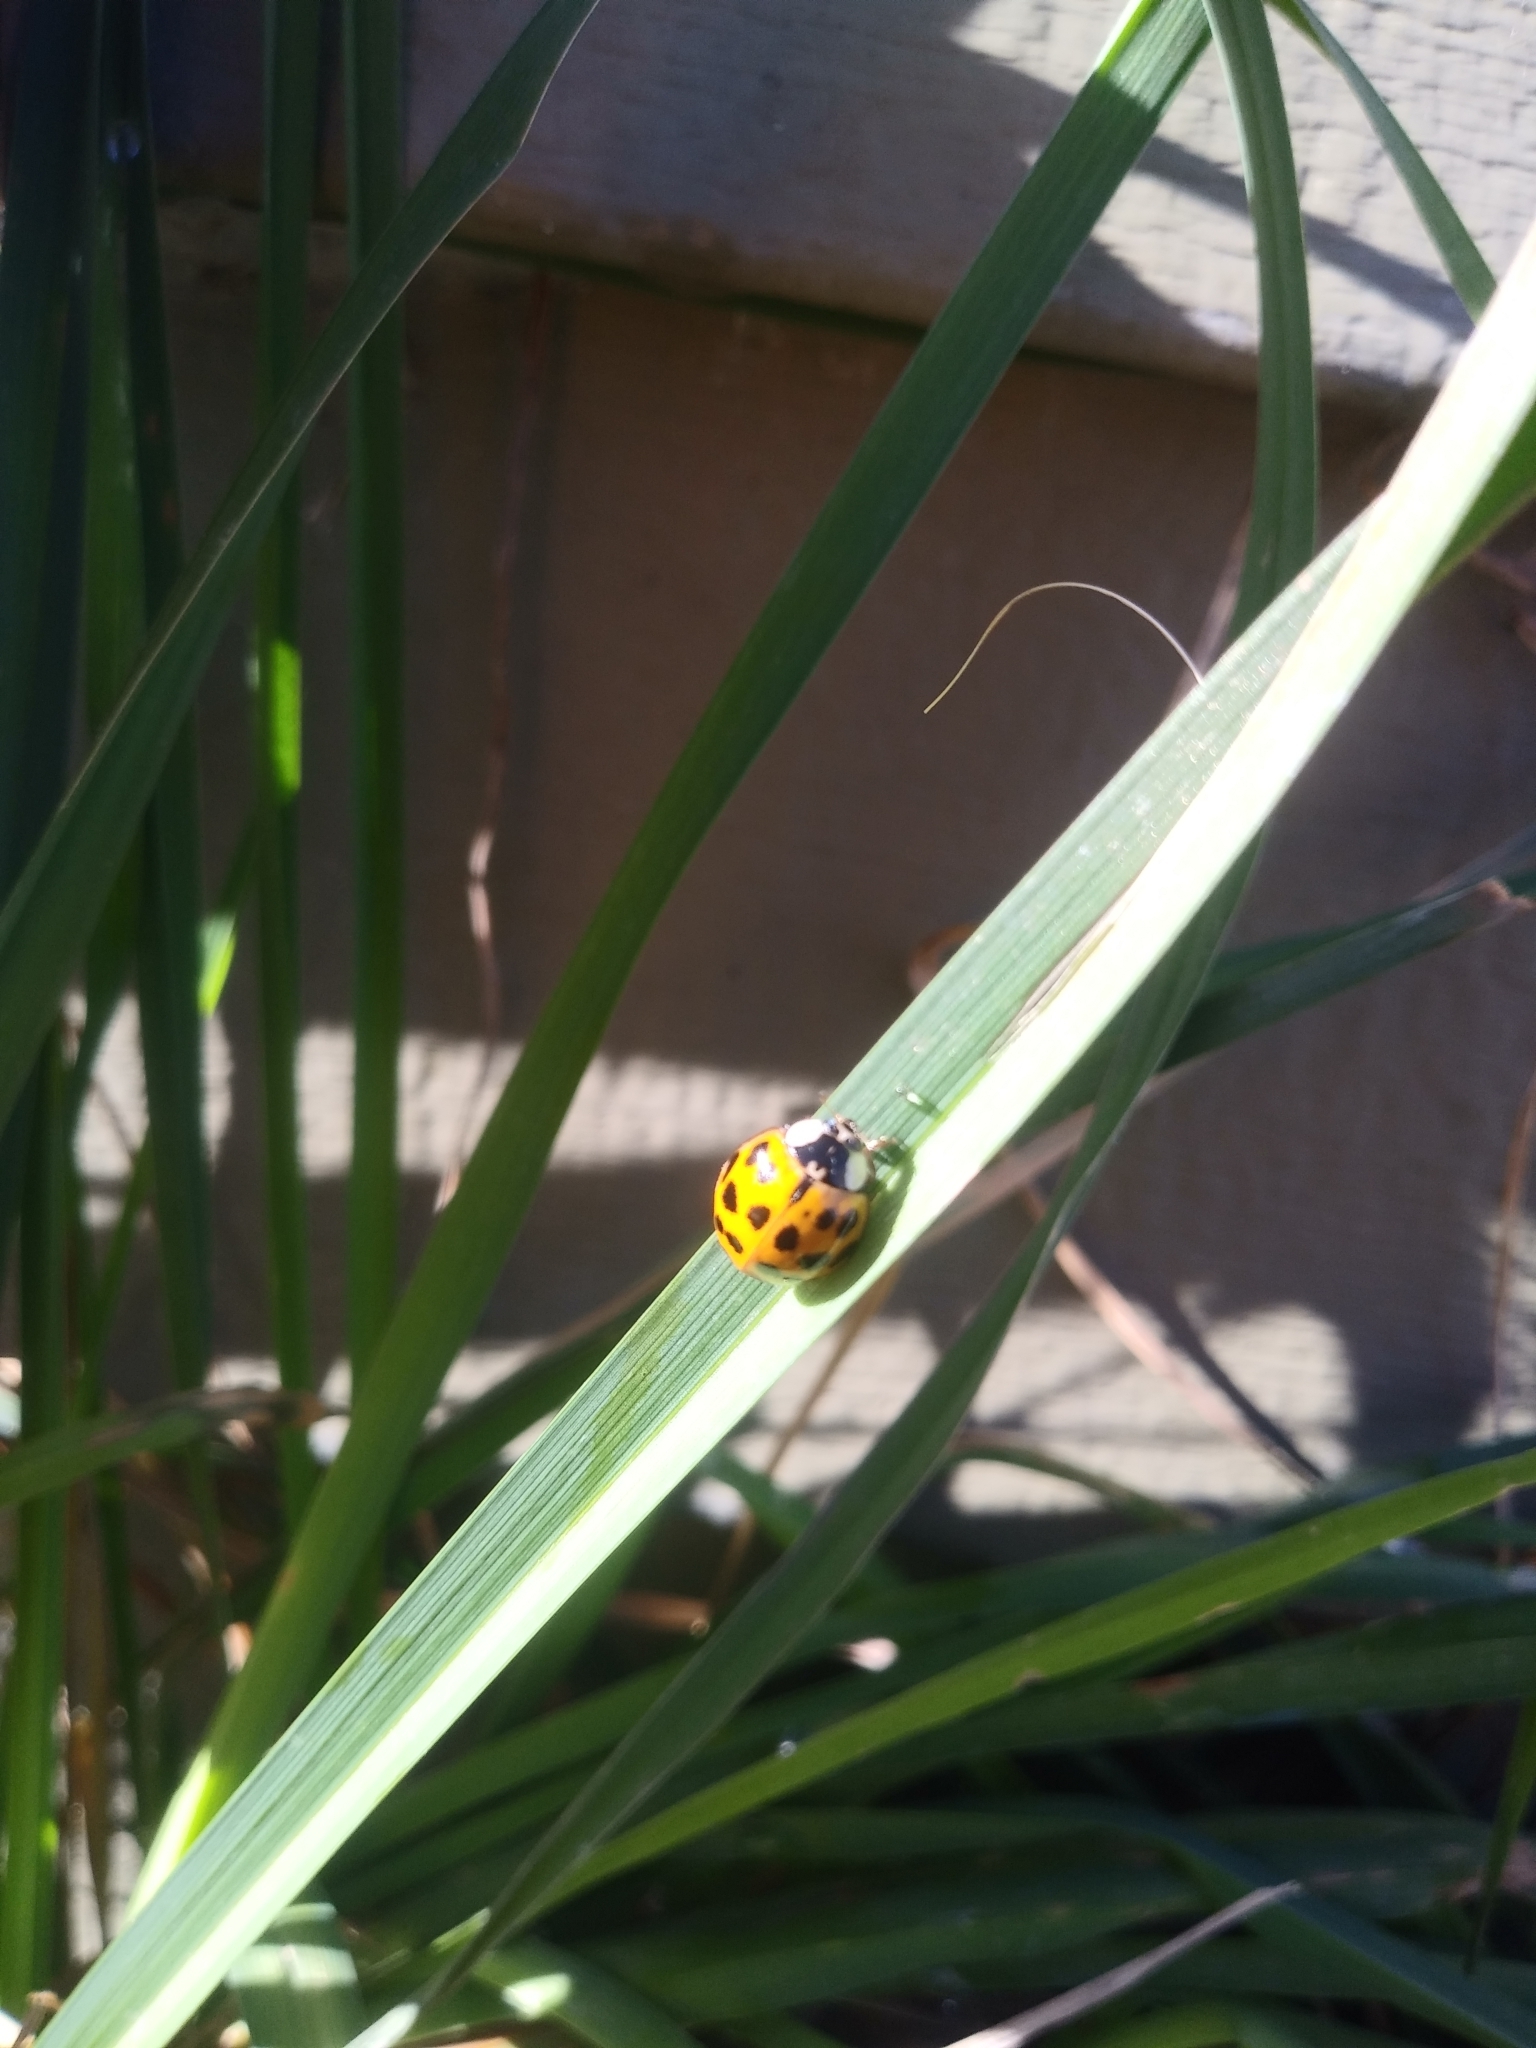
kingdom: Animalia
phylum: Arthropoda
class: Insecta
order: Coleoptera
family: Coccinellidae
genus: Harmonia
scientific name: Harmonia axyridis
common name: Harlequin ladybird
